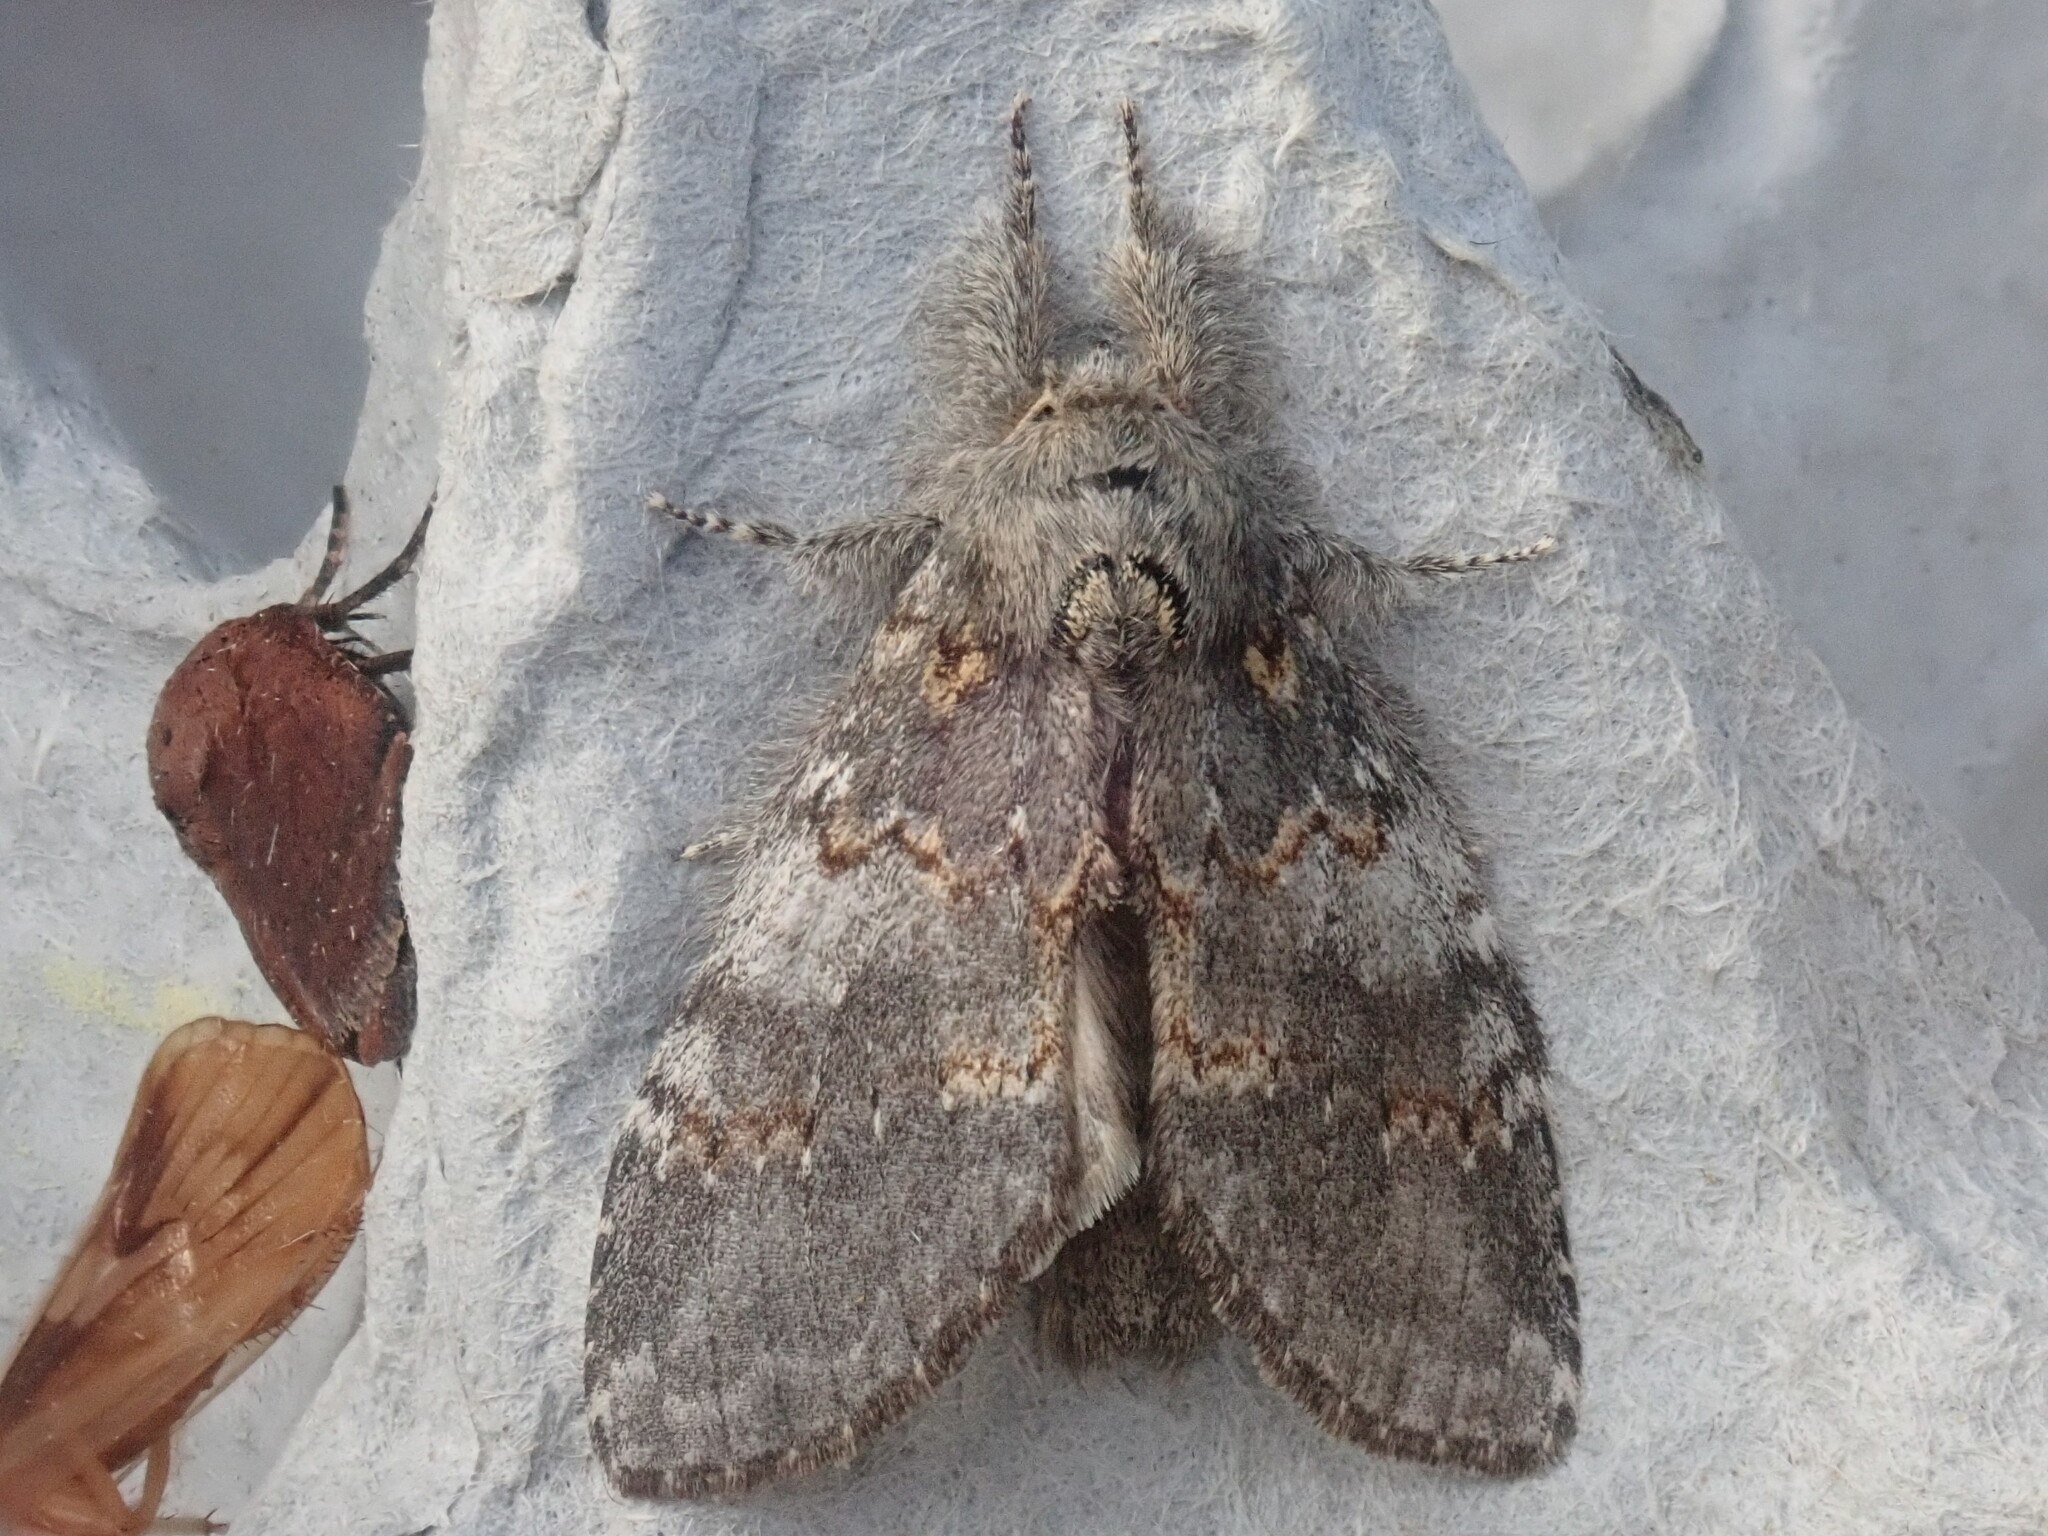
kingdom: Animalia
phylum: Arthropoda
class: Insecta
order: Lepidoptera
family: Notodontidae
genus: Peridea
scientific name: Peridea angulosa
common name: Angulose prominent
